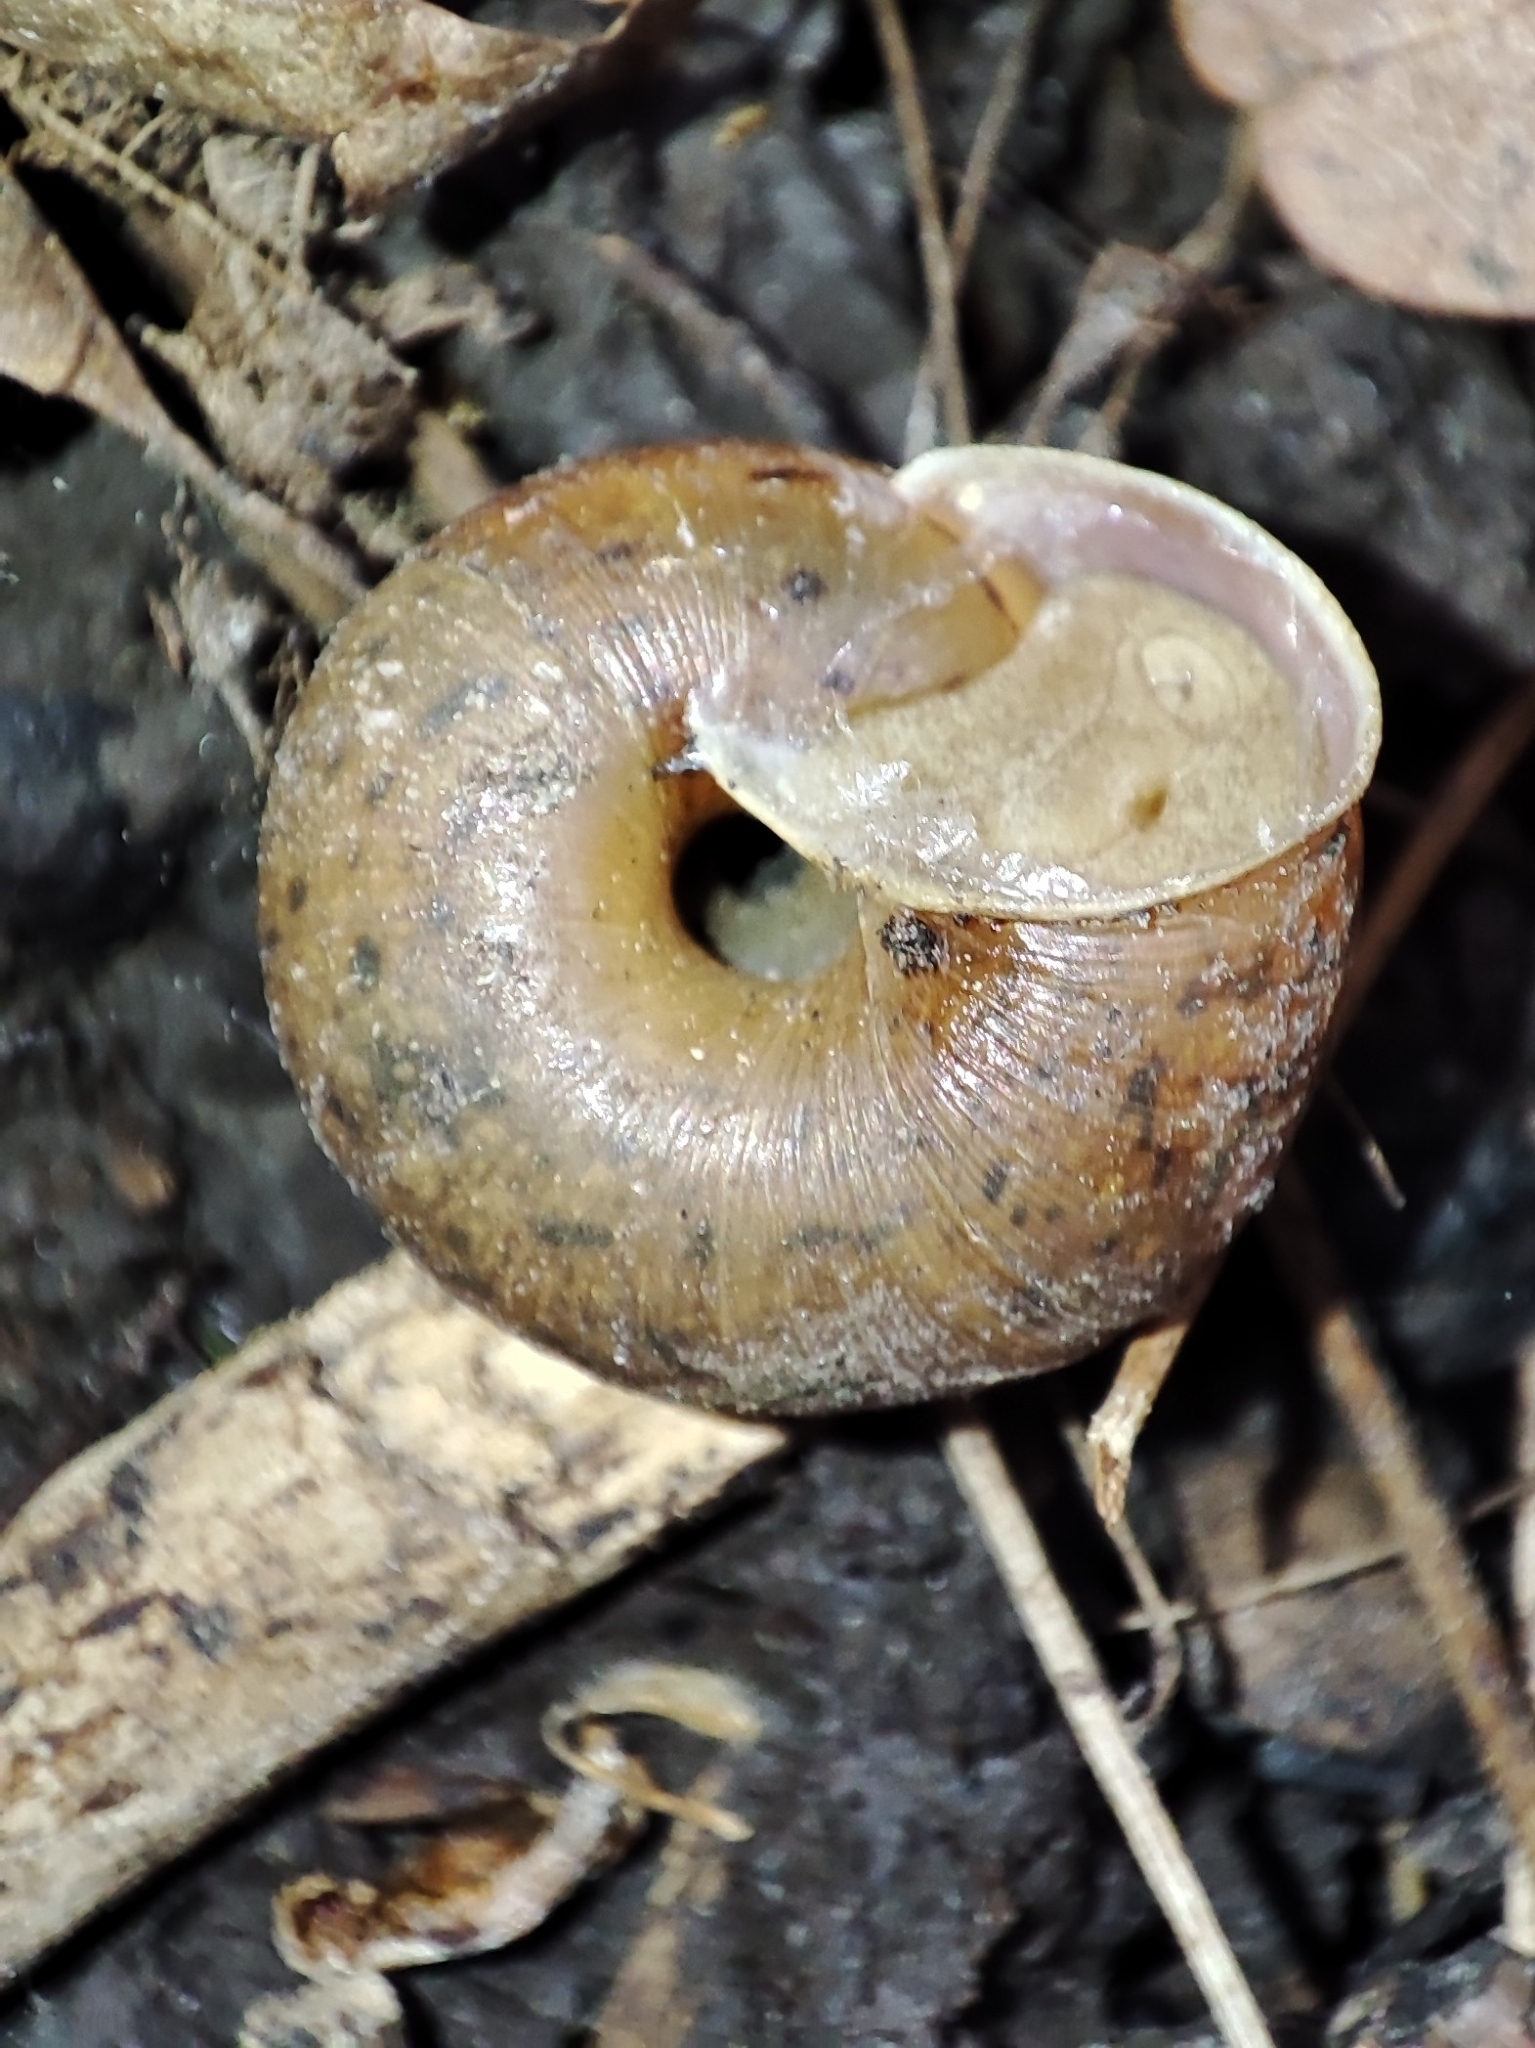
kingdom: Animalia
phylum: Mollusca
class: Gastropoda
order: Stylommatophora
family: Hygromiidae
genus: Euomphalia
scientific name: Euomphalia strigella
